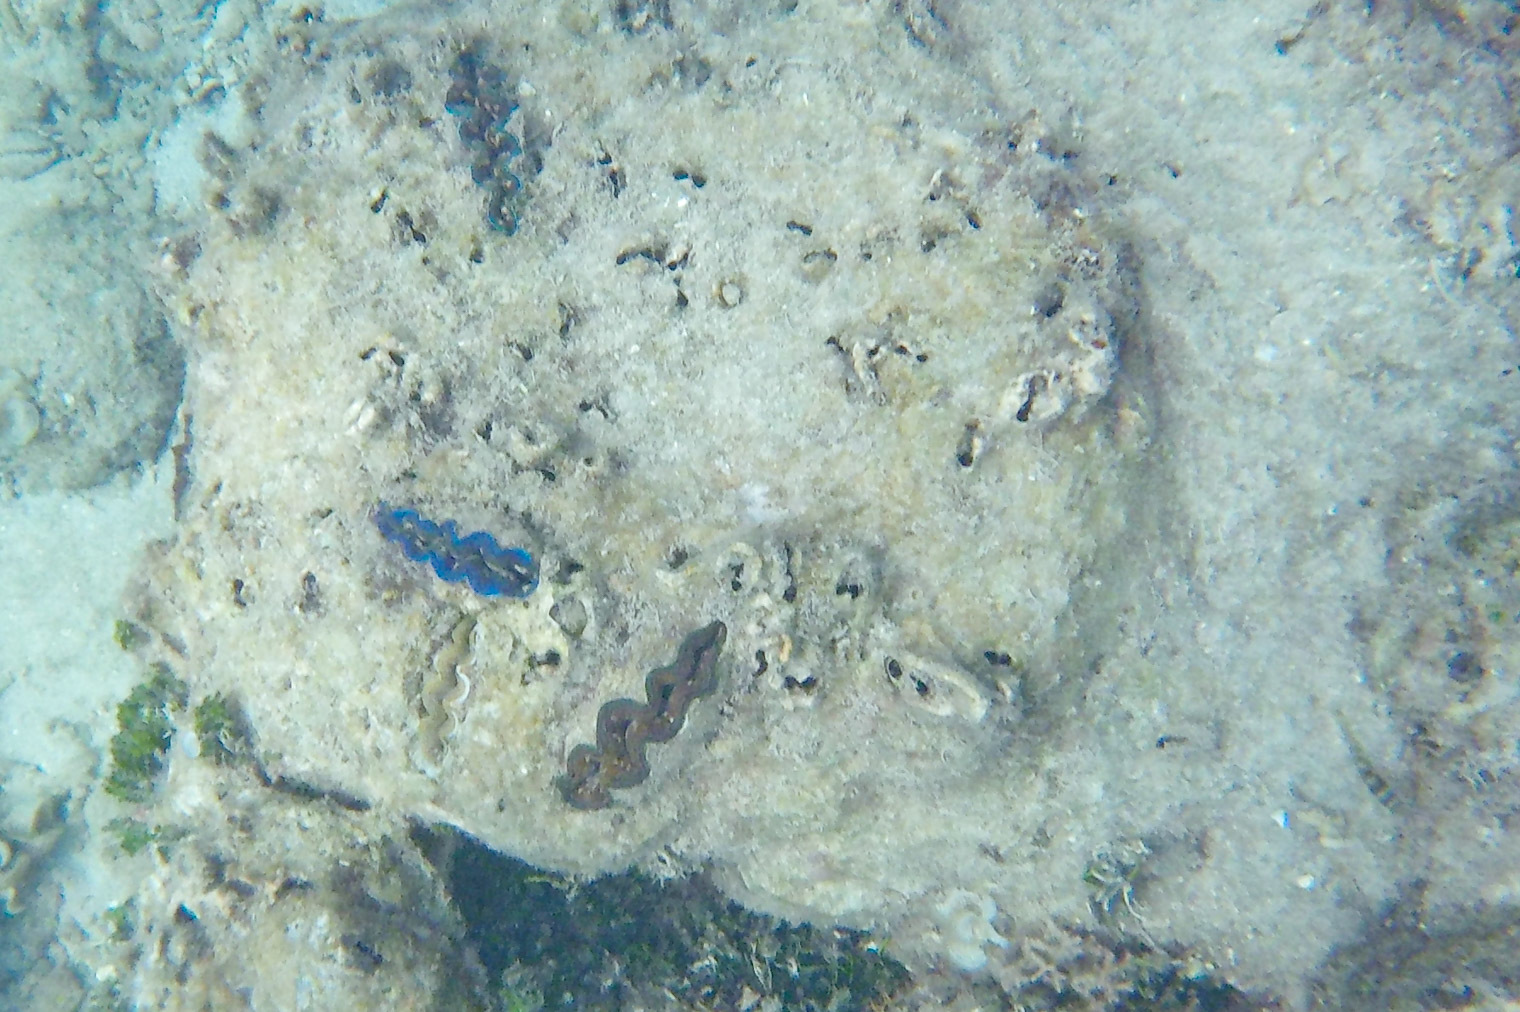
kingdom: Animalia
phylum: Mollusca
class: Bivalvia
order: Cardiida
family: Cardiidae
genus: Tridacna
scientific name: Tridacna crocea
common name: Boring clam
